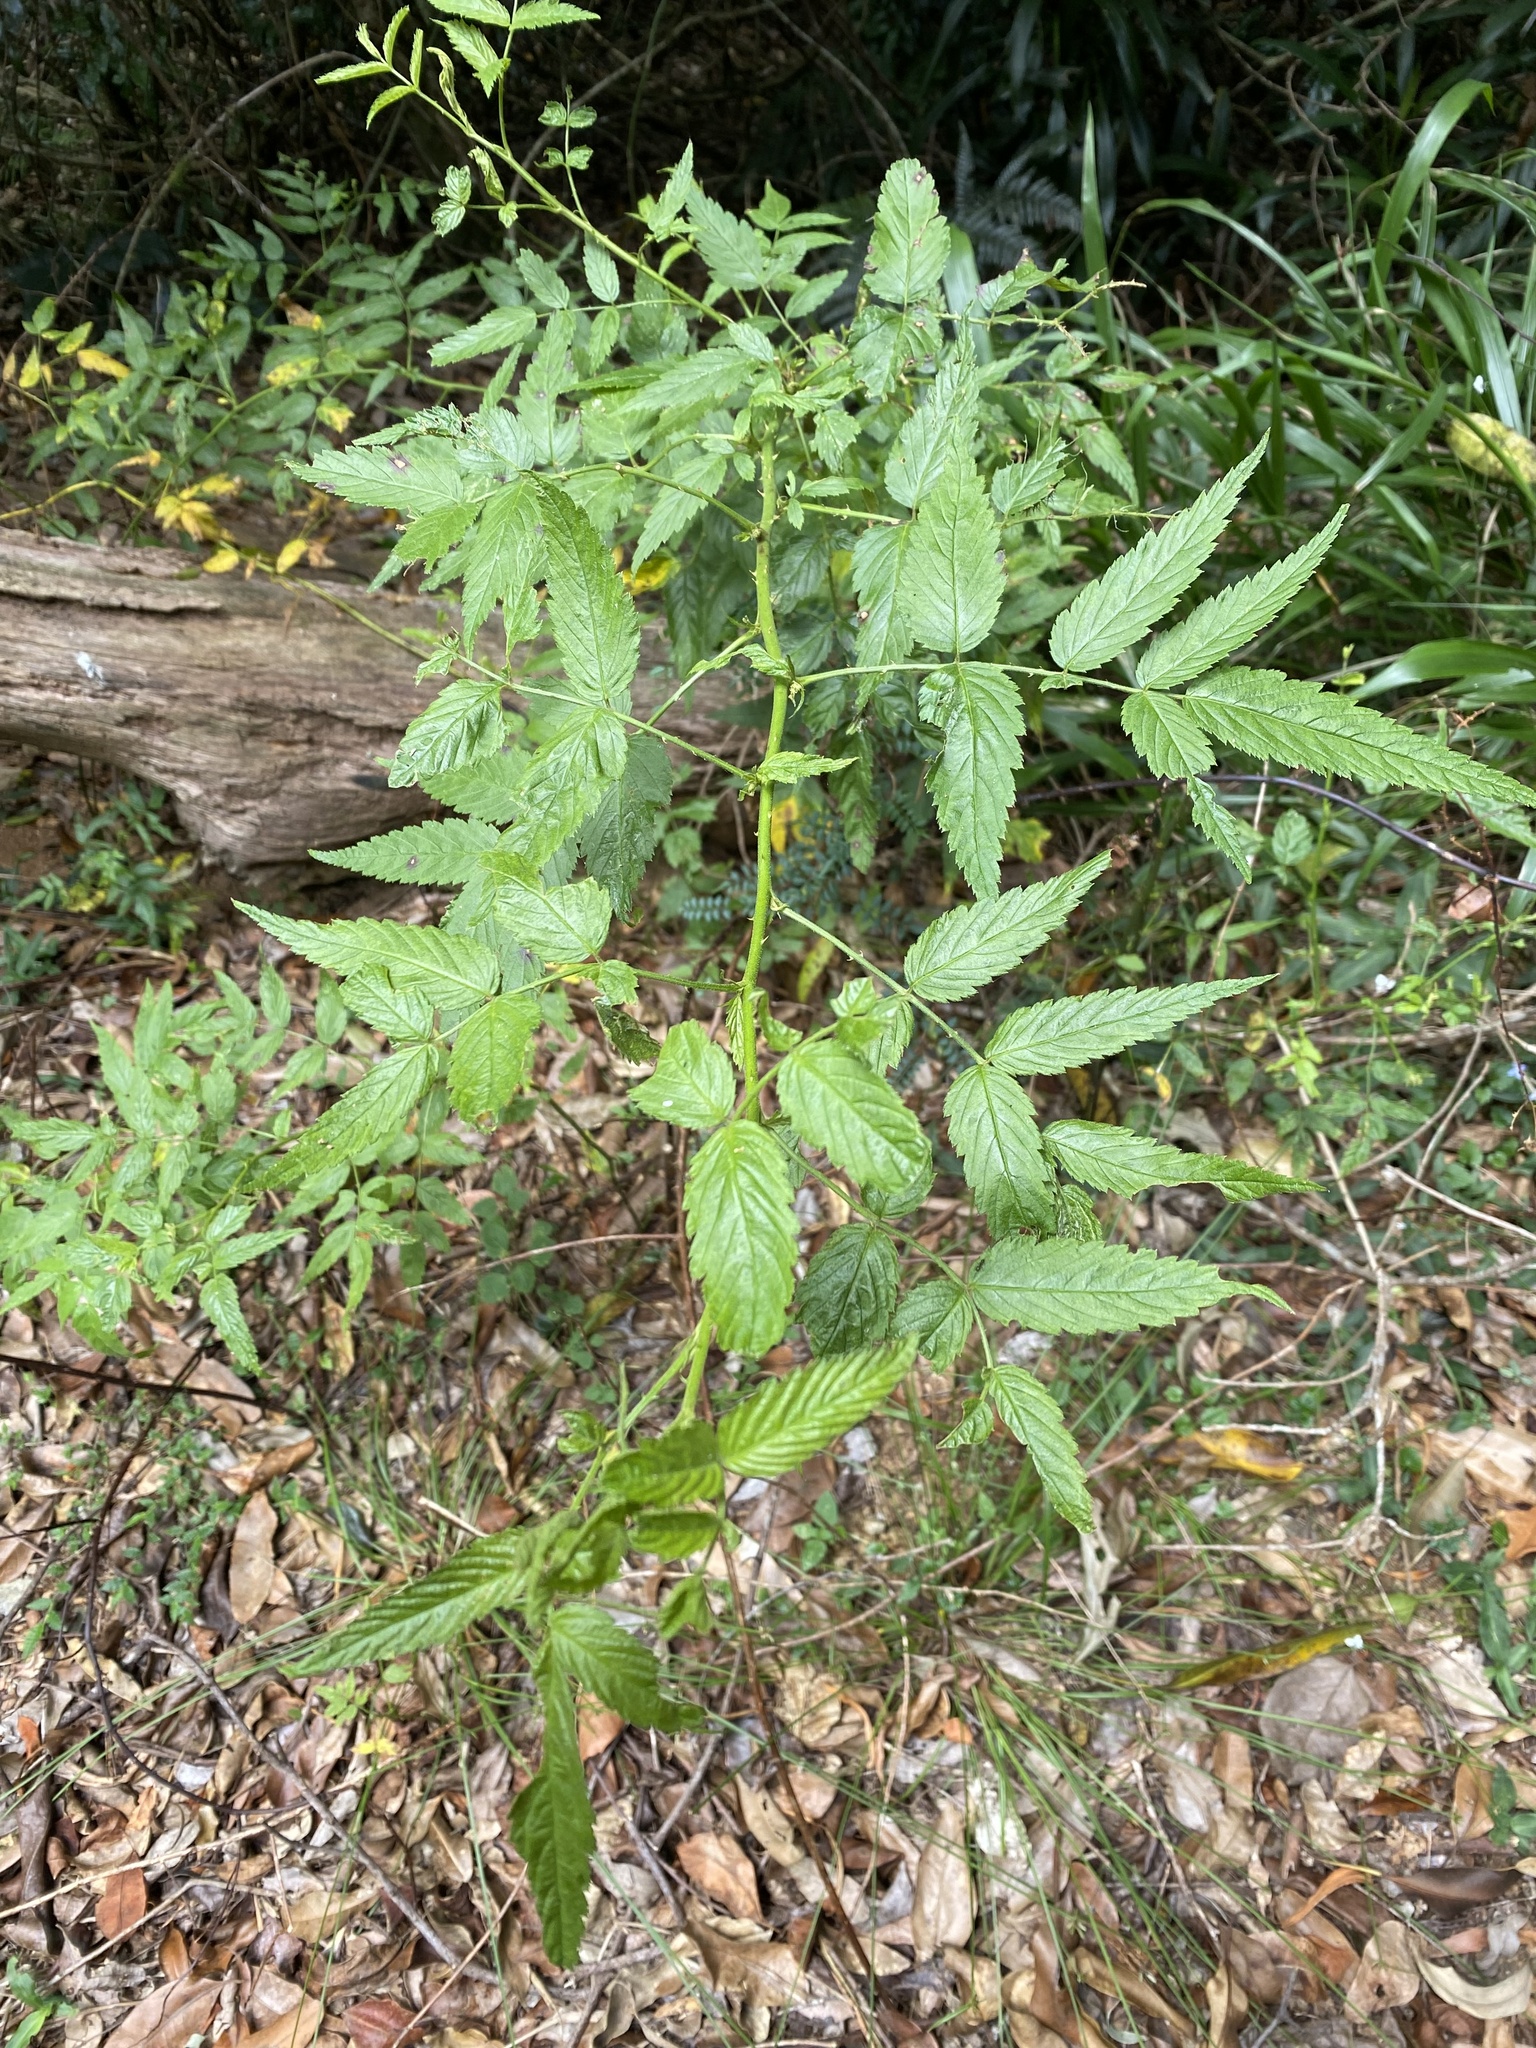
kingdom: Plantae
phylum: Tracheophyta
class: Magnoliopsida
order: Rosales
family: Rosaceae
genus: Rubus
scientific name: Rubus rosifolius
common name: Roseleaf raspberry
